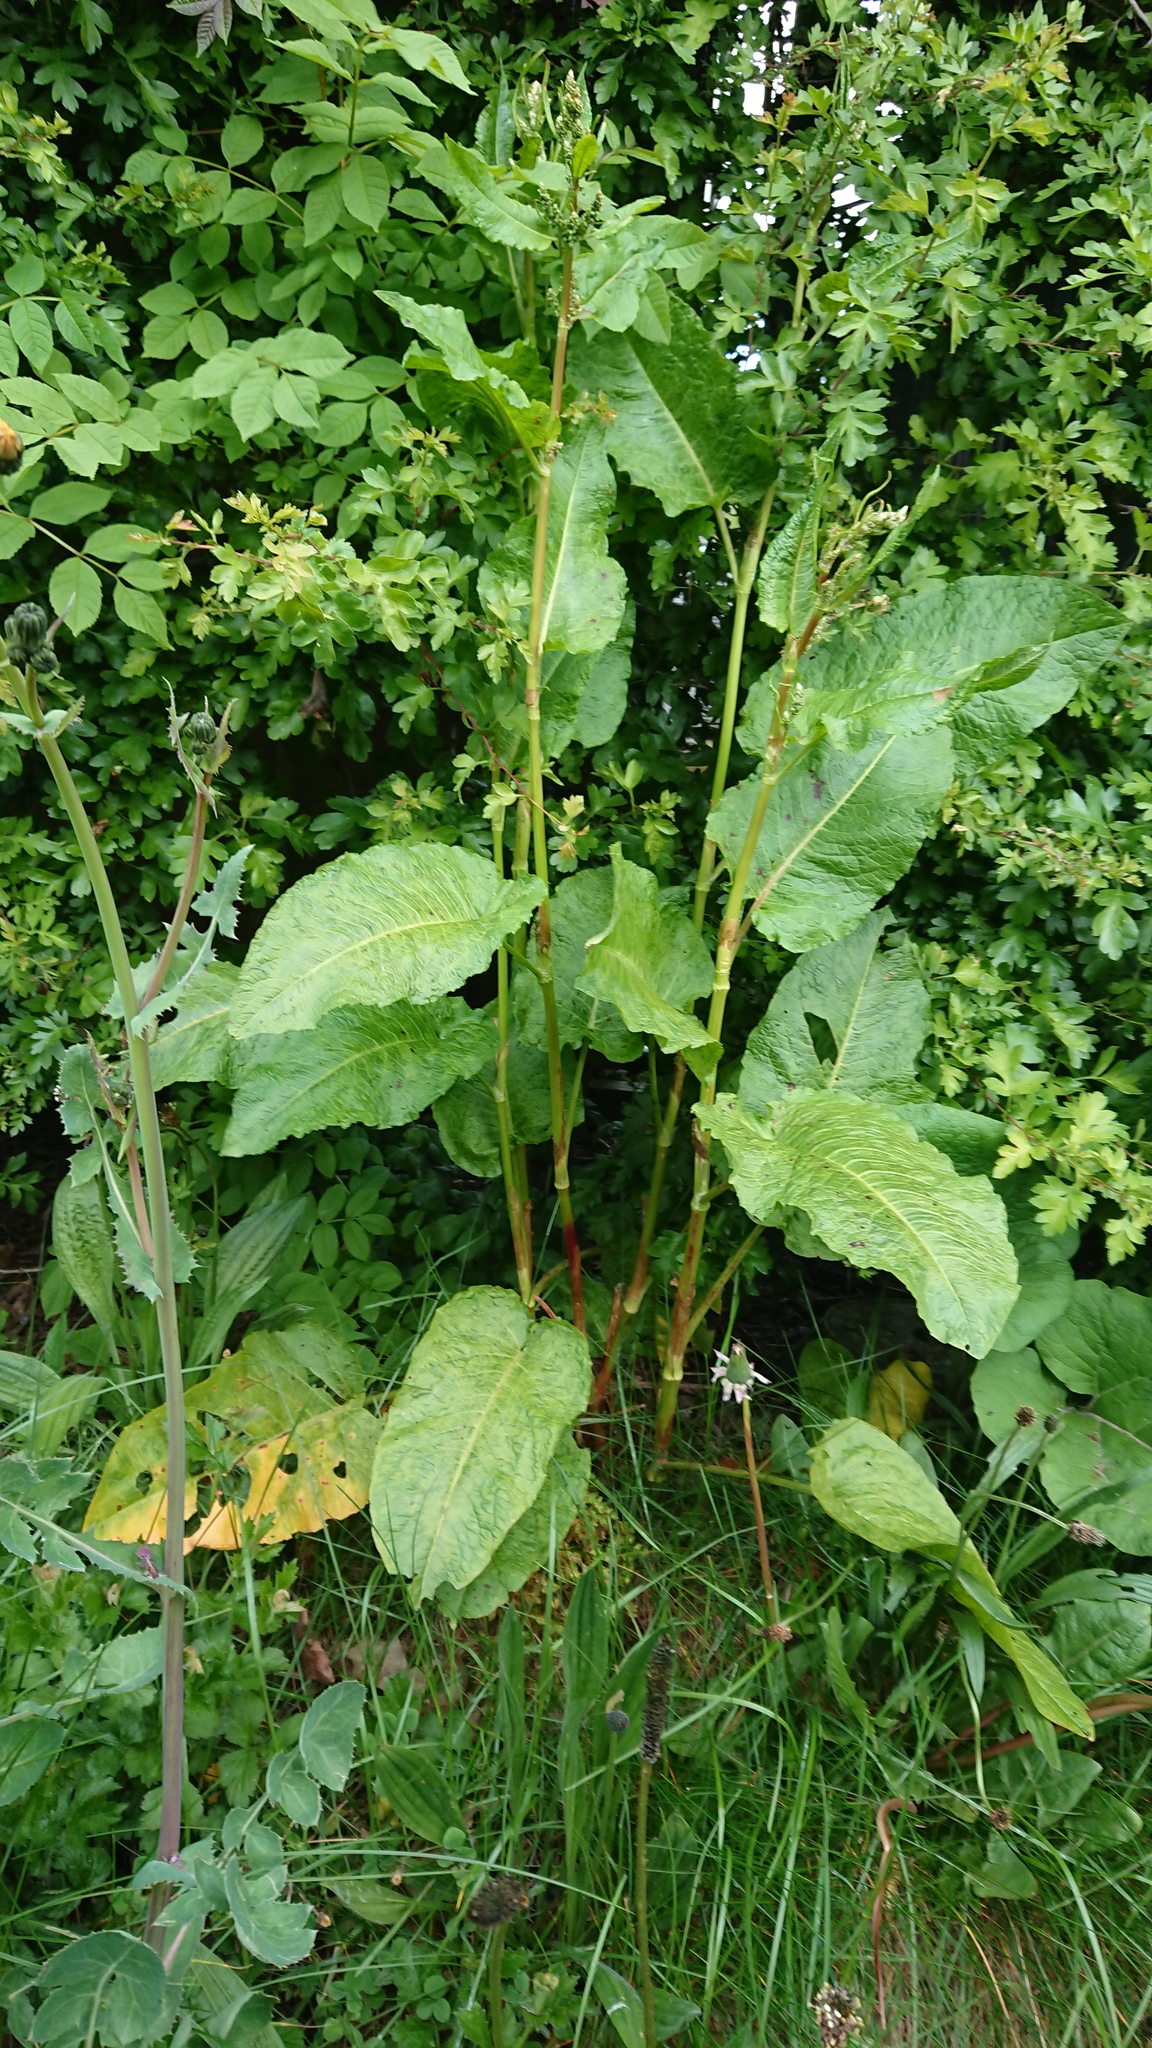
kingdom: Plantae
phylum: Tracheophyta
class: Magnoliopsida
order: Caryophyllales
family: Polygonaceae
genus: Rumex
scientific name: Rumex obtusifolius
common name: Bitter dock
